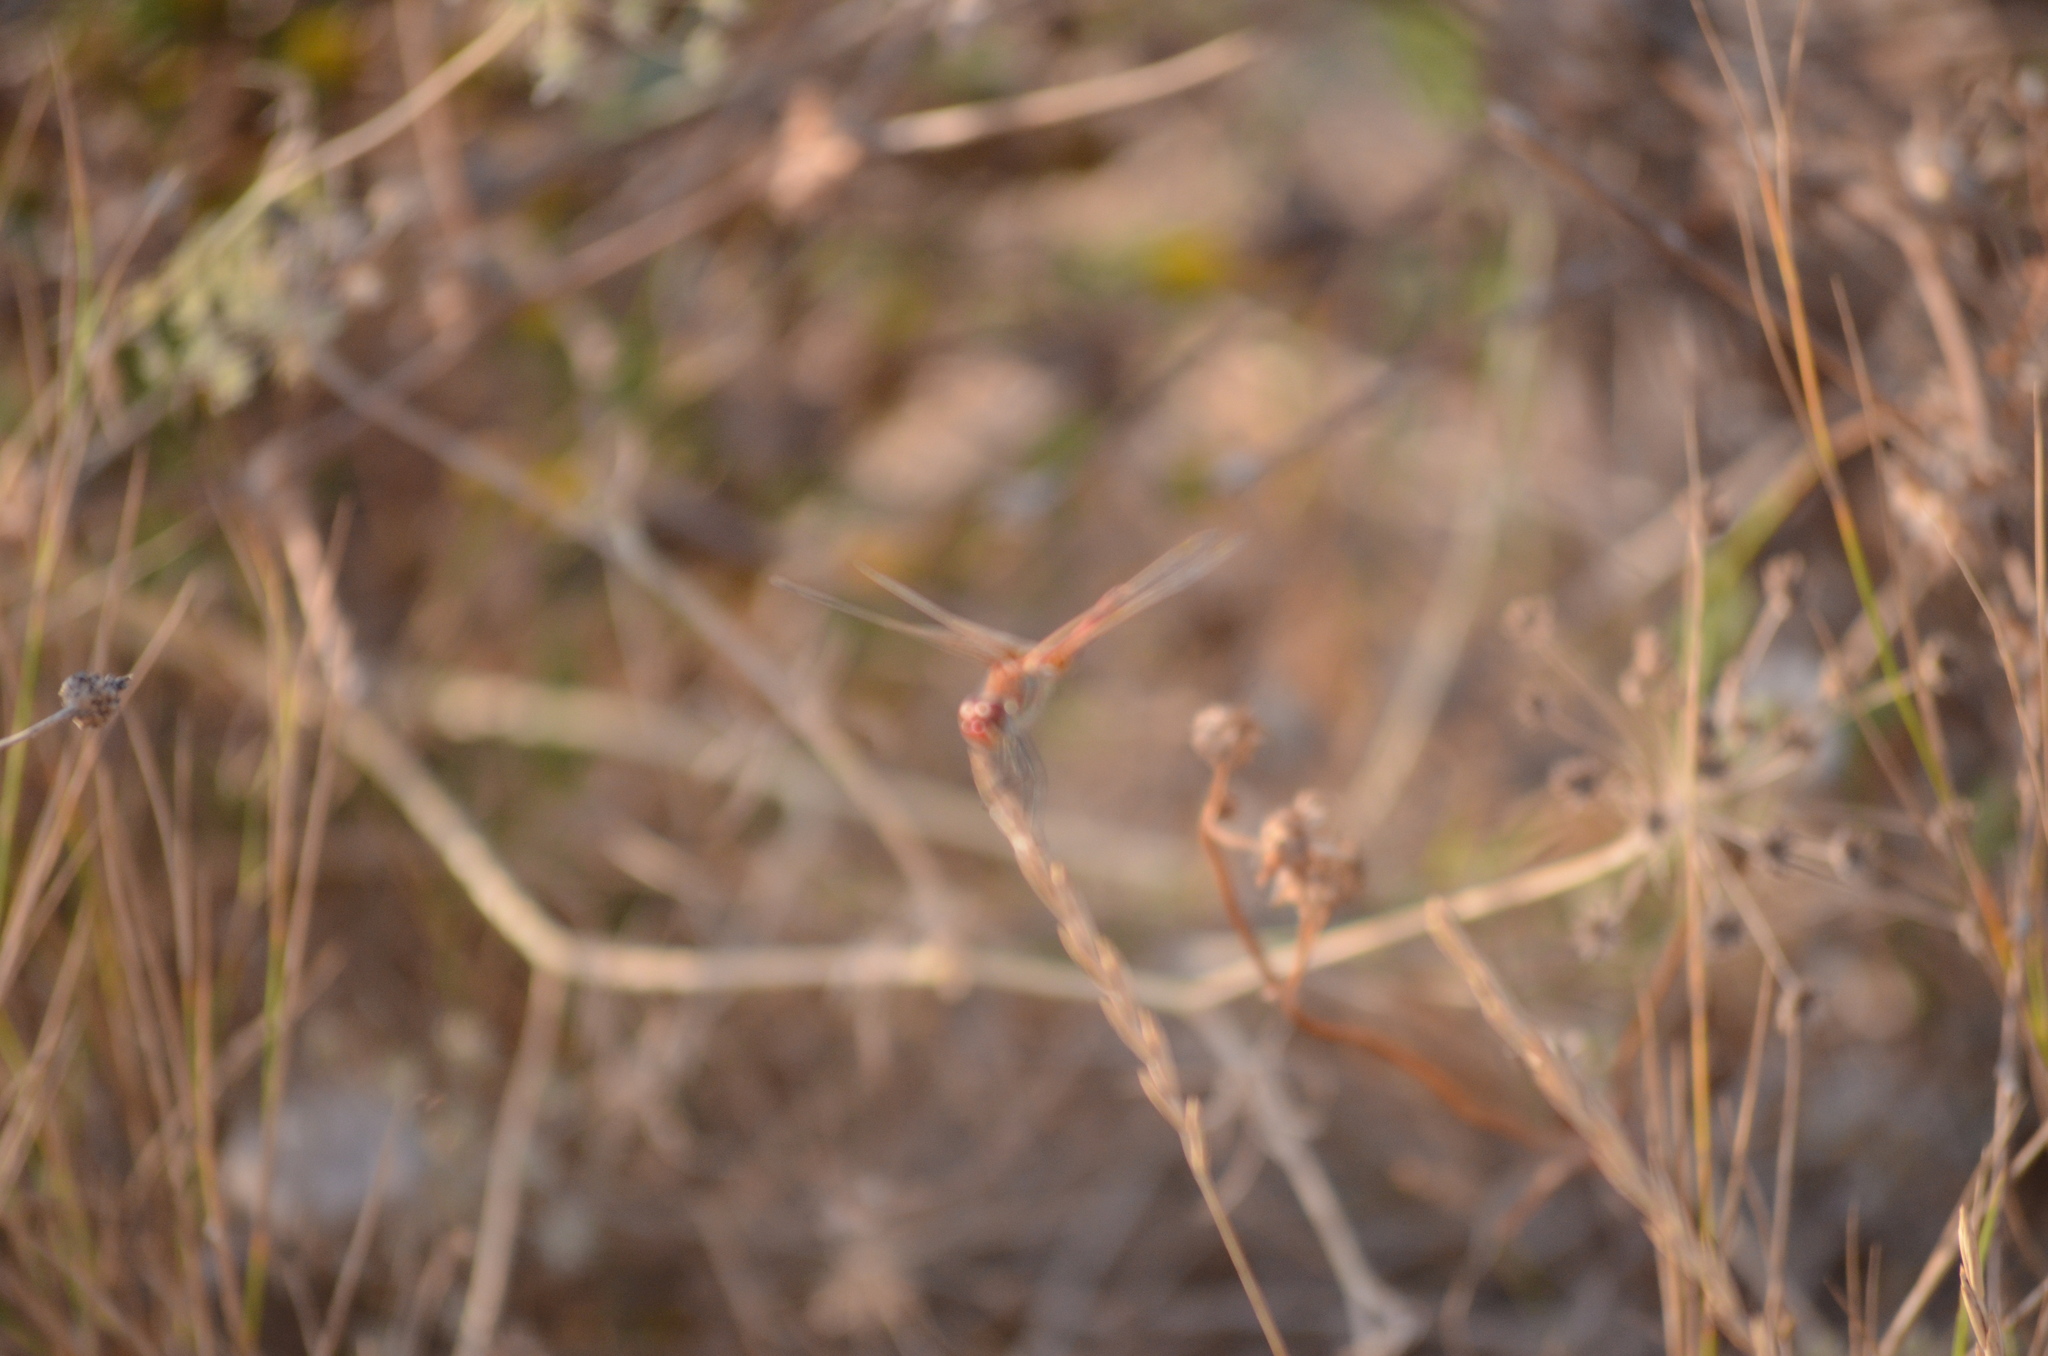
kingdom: Animalia
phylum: Arthropoda
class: Insecta
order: Odonata
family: Libellulidae
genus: Sympetrum
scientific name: Sympetrum fonscolombii
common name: Red-veined darter
